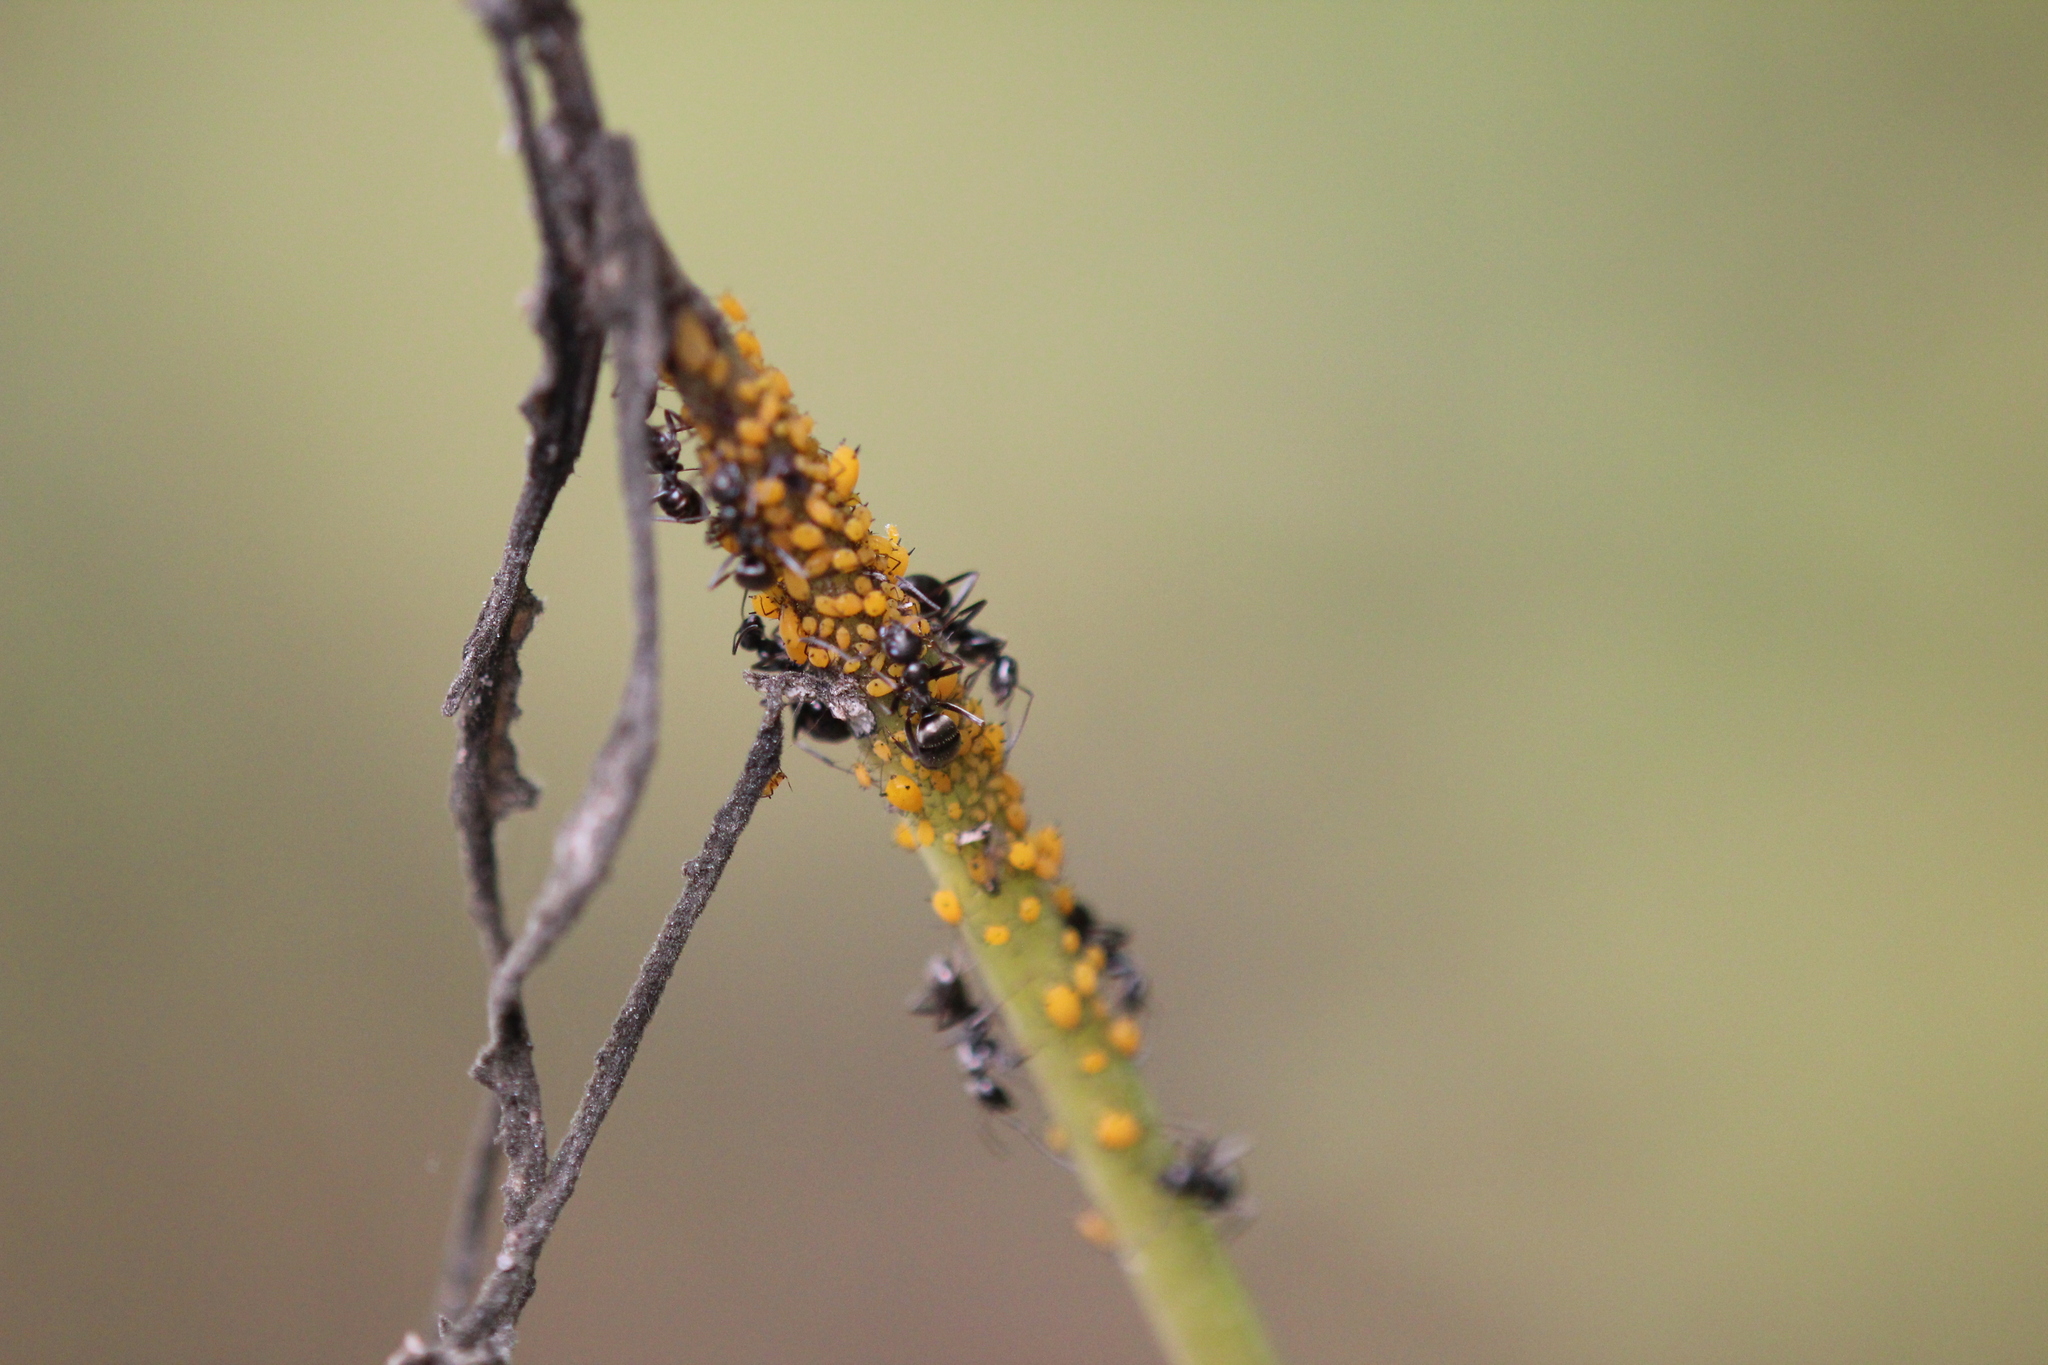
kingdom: Animalia
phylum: Arthropoda
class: Insecta
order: Hemiptera
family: Aphididae
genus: Aphis
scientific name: Aphis nerii
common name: Oleander aphid
